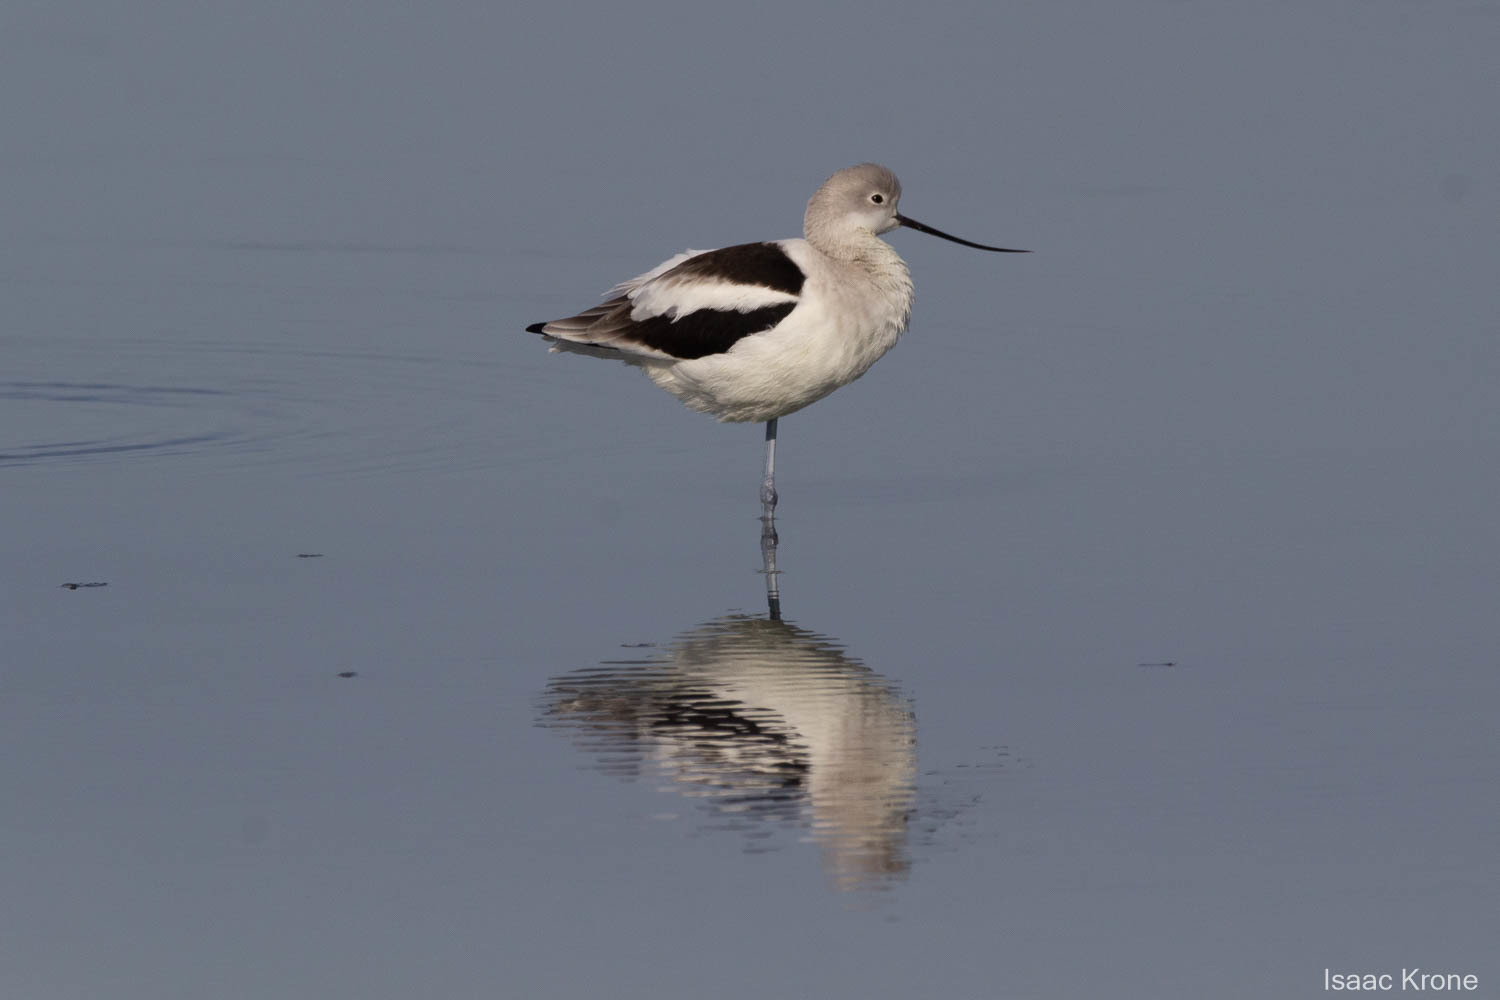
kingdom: Animalia
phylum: Chordata
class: Aves
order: Charadriiformes
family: Recurvirostridae
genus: Recurvirostra
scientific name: Recurvirostra americana
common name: American avocet
